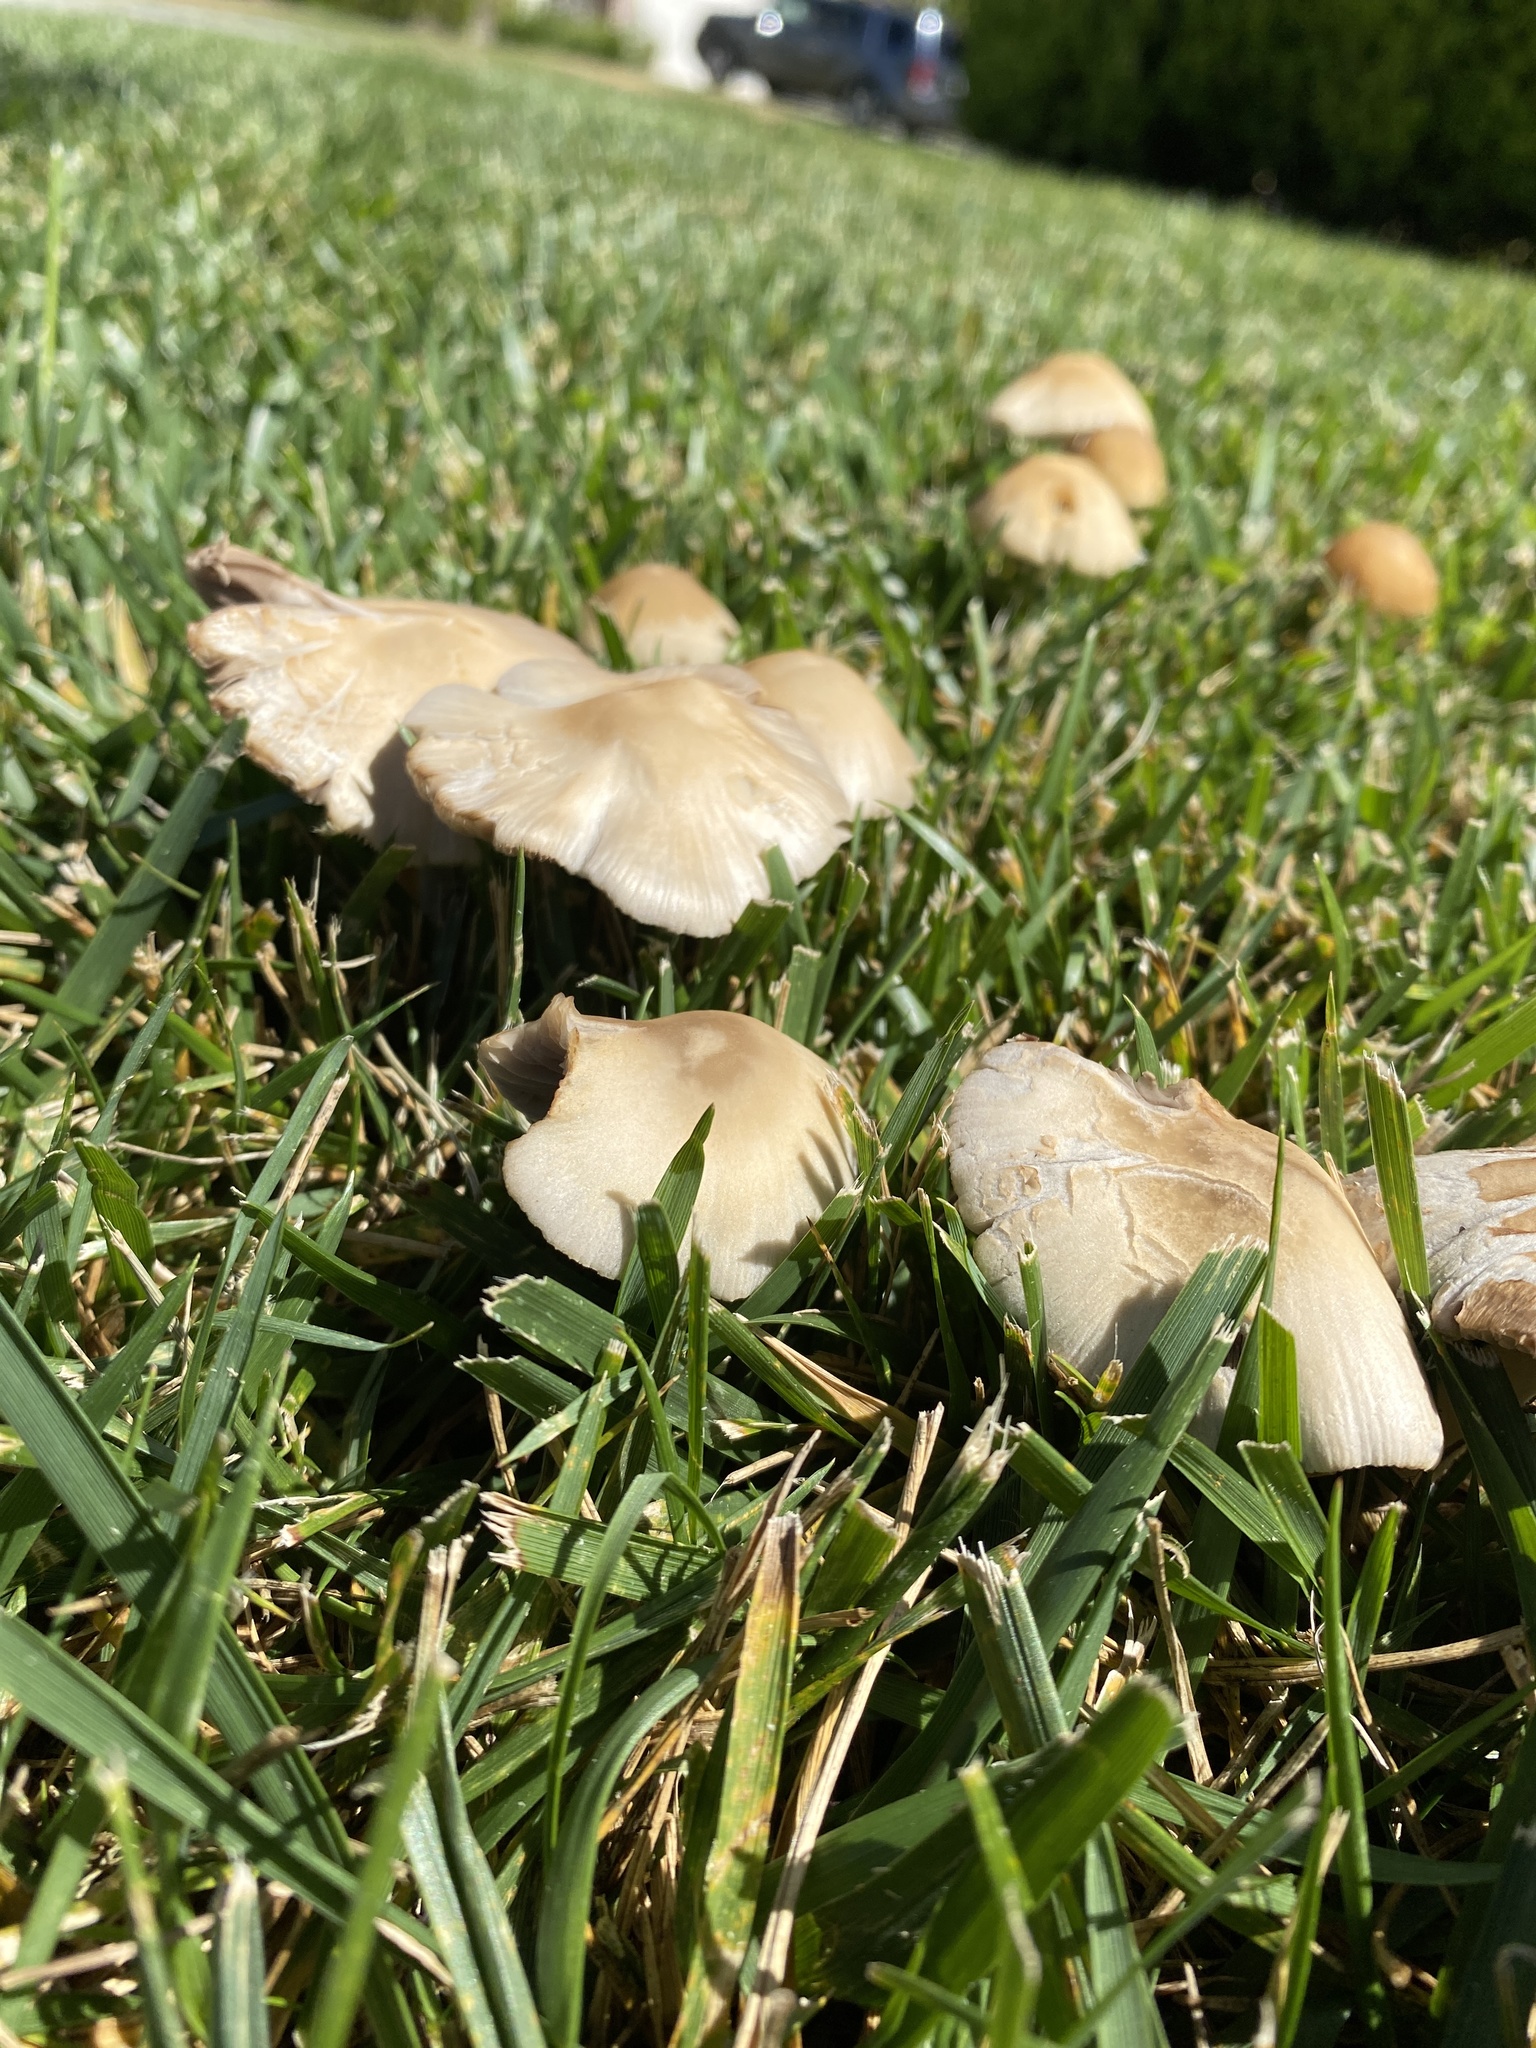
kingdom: Fungi
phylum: Basidiomycota
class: Agaricomycetes
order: Agaricales
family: Psathyrellaceae
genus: Candolleomyces
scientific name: Candolleomyces candolleanus
